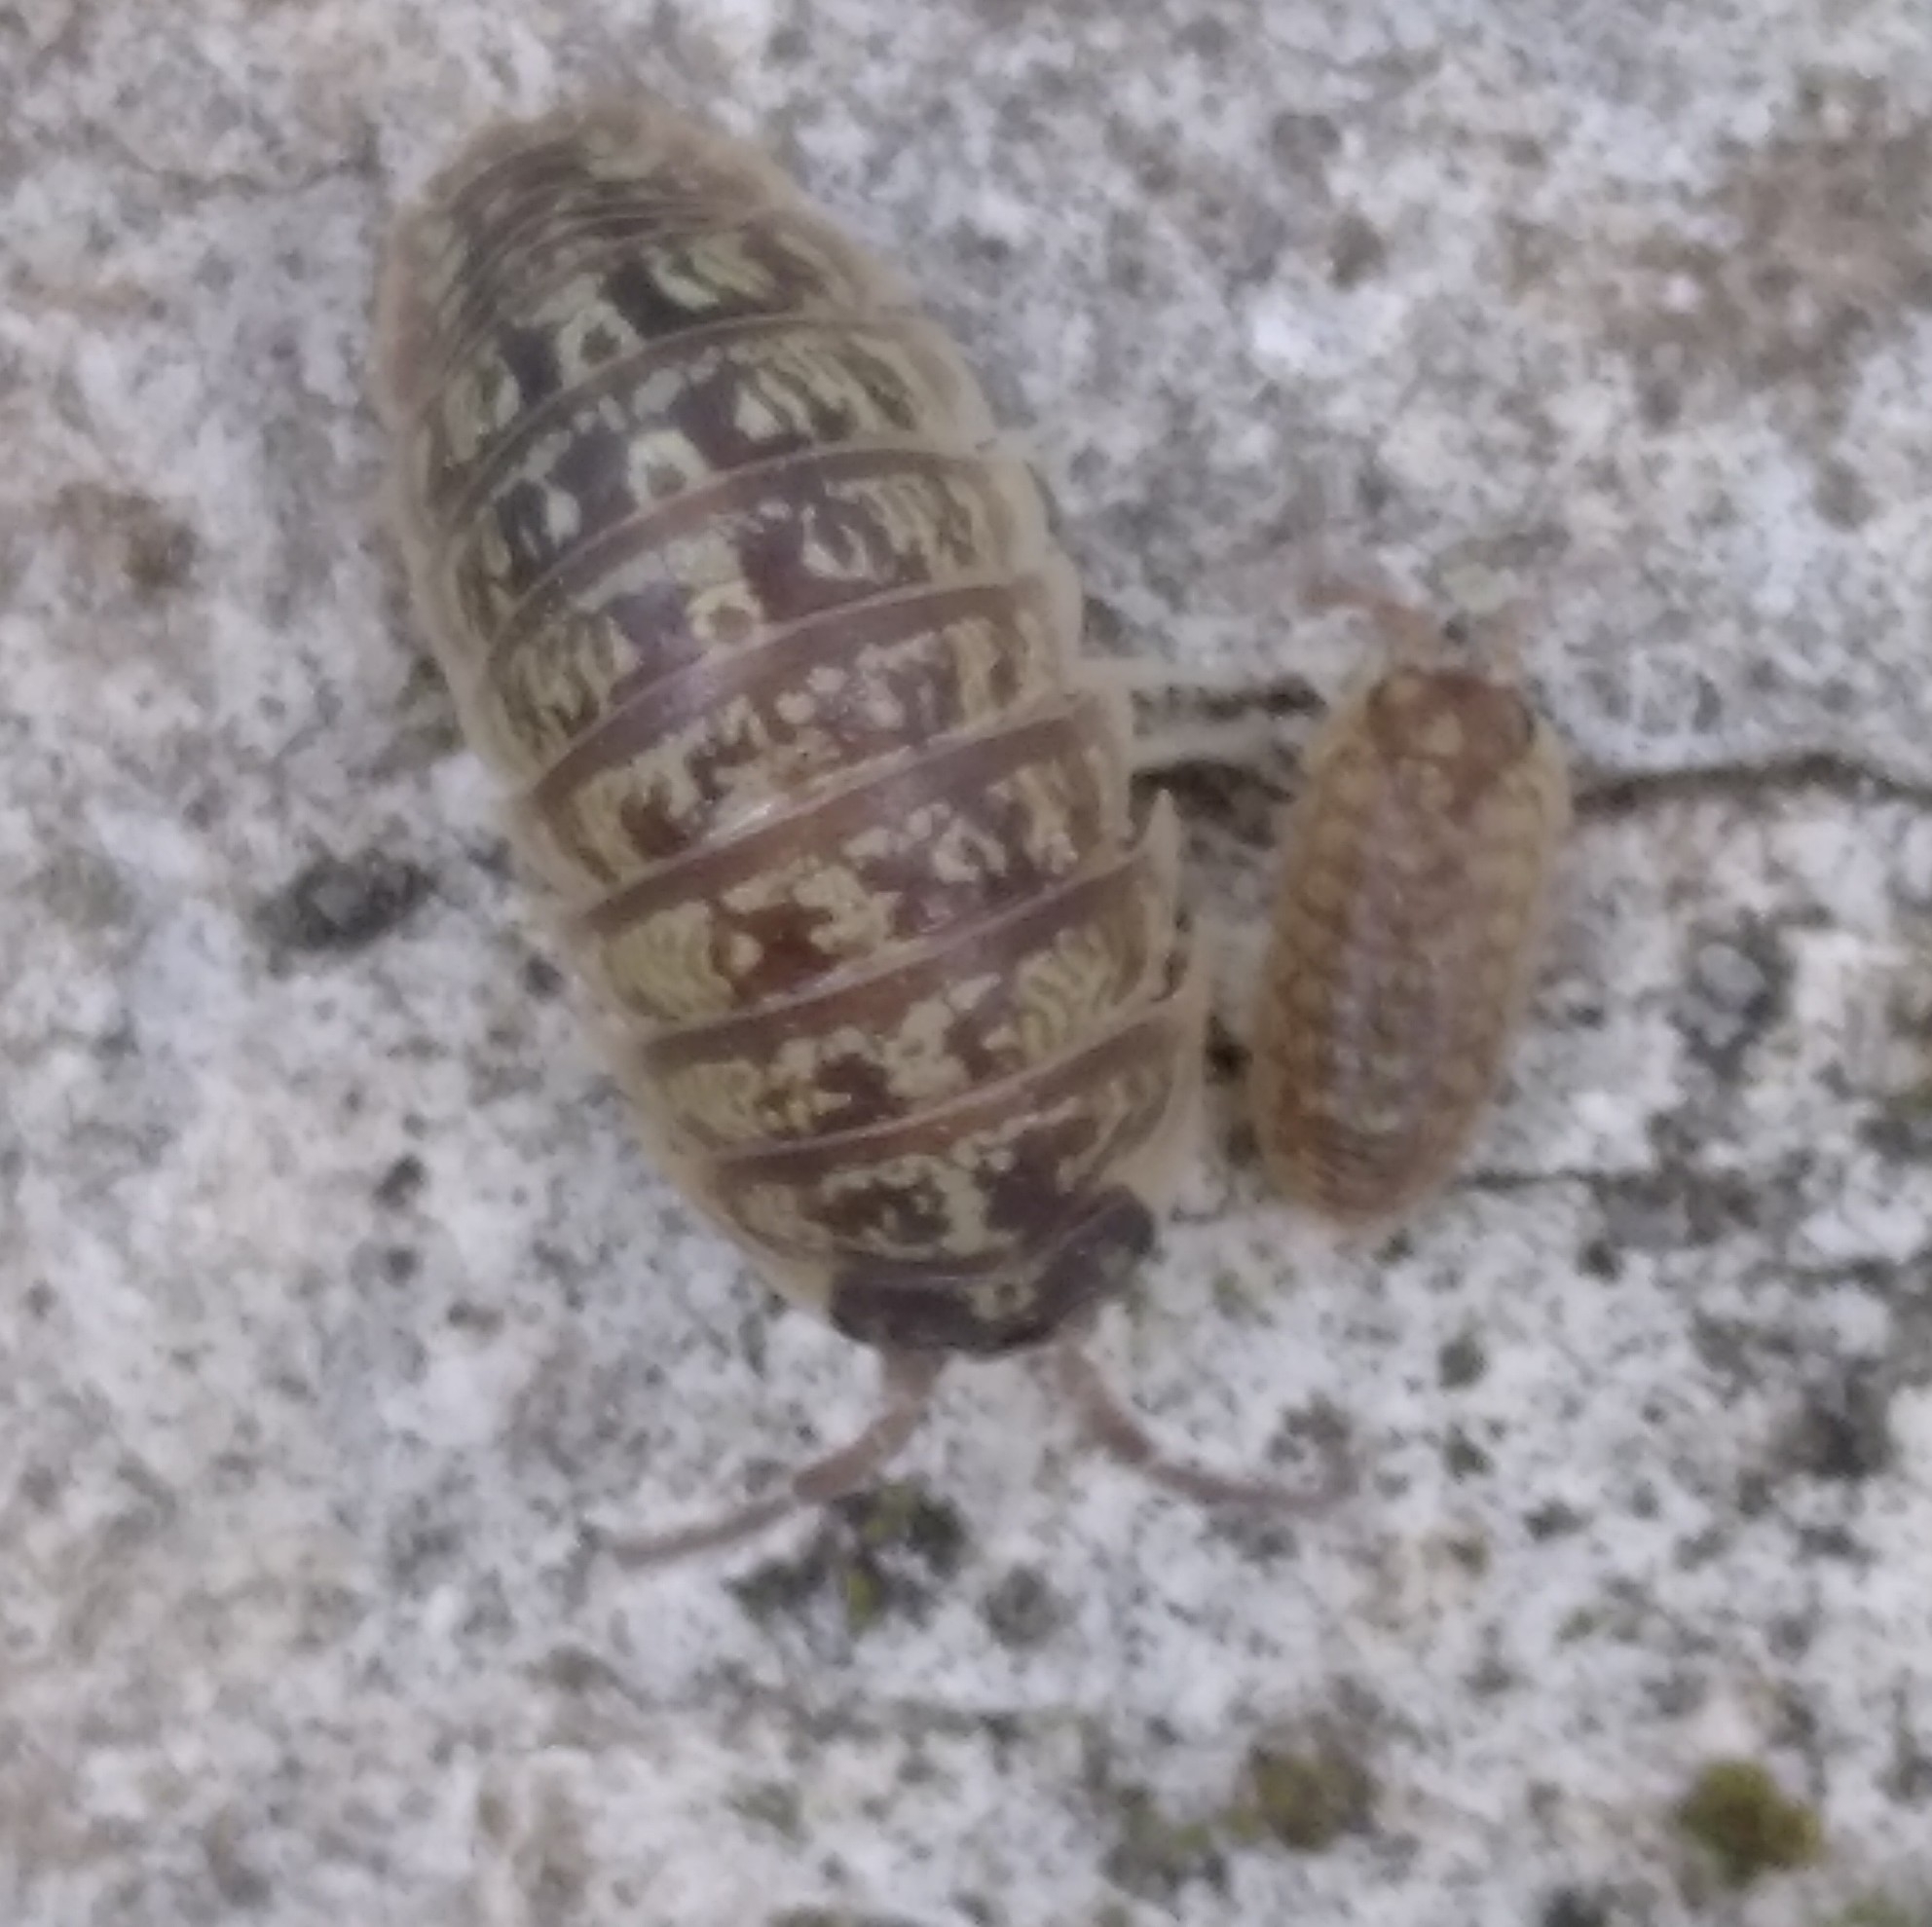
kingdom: Animalia
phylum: Arthropoda
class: Malacostraca
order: Isopoda
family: Armadillidiidae
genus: Armadillidium
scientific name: Armadillidium versicolor
